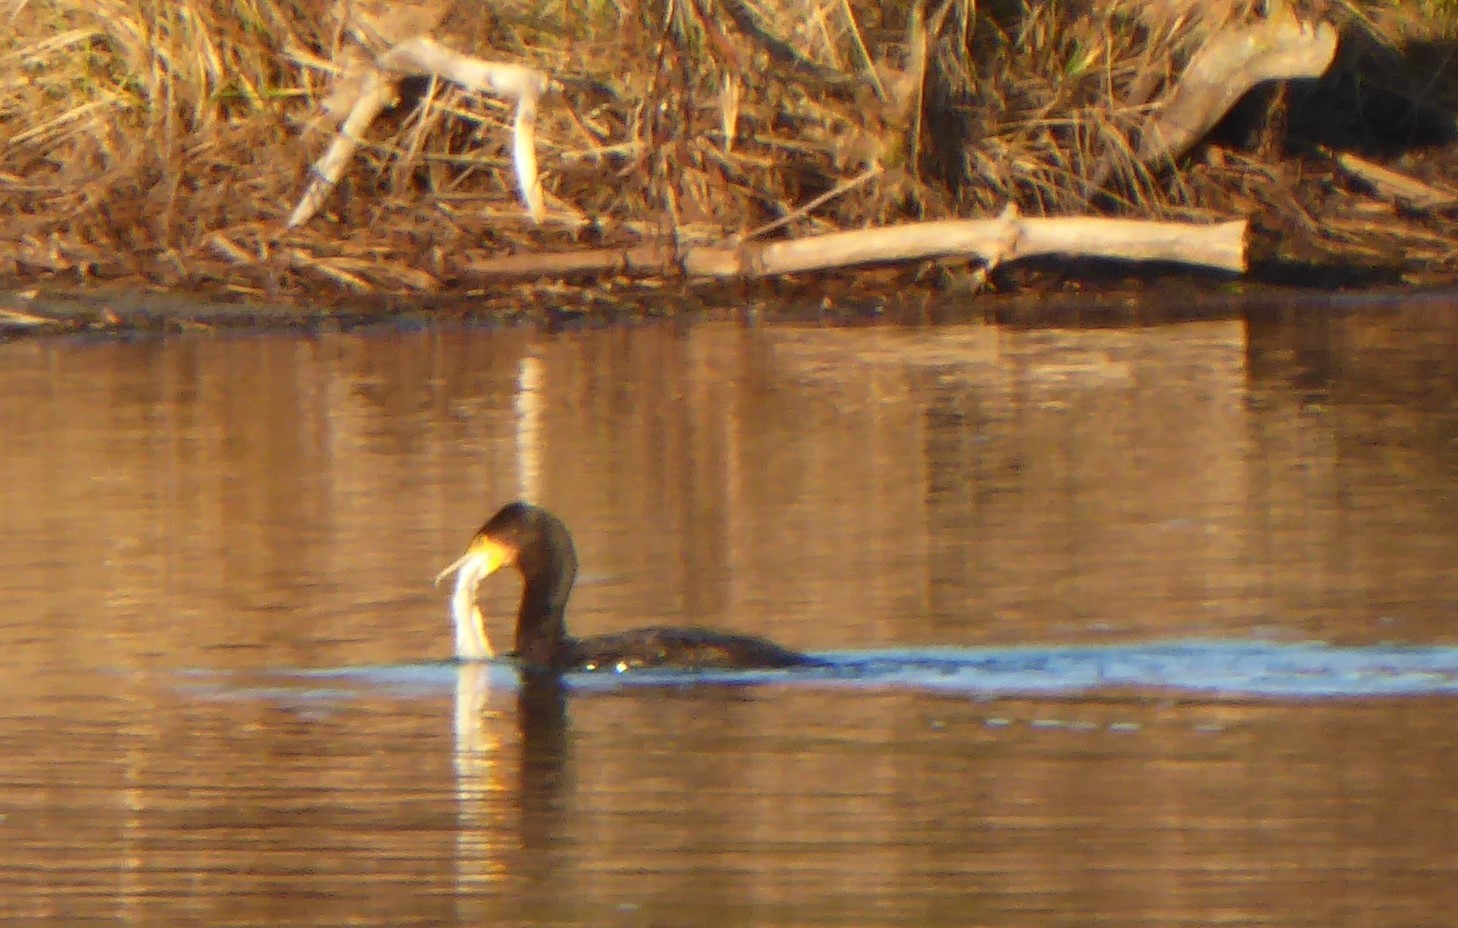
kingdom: Animalia
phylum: Chordata
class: Aves
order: Suliformes
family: Phalacrocoracidae
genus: Phalacrocorax
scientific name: Phalacrocorax carbo
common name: Great cormorant
